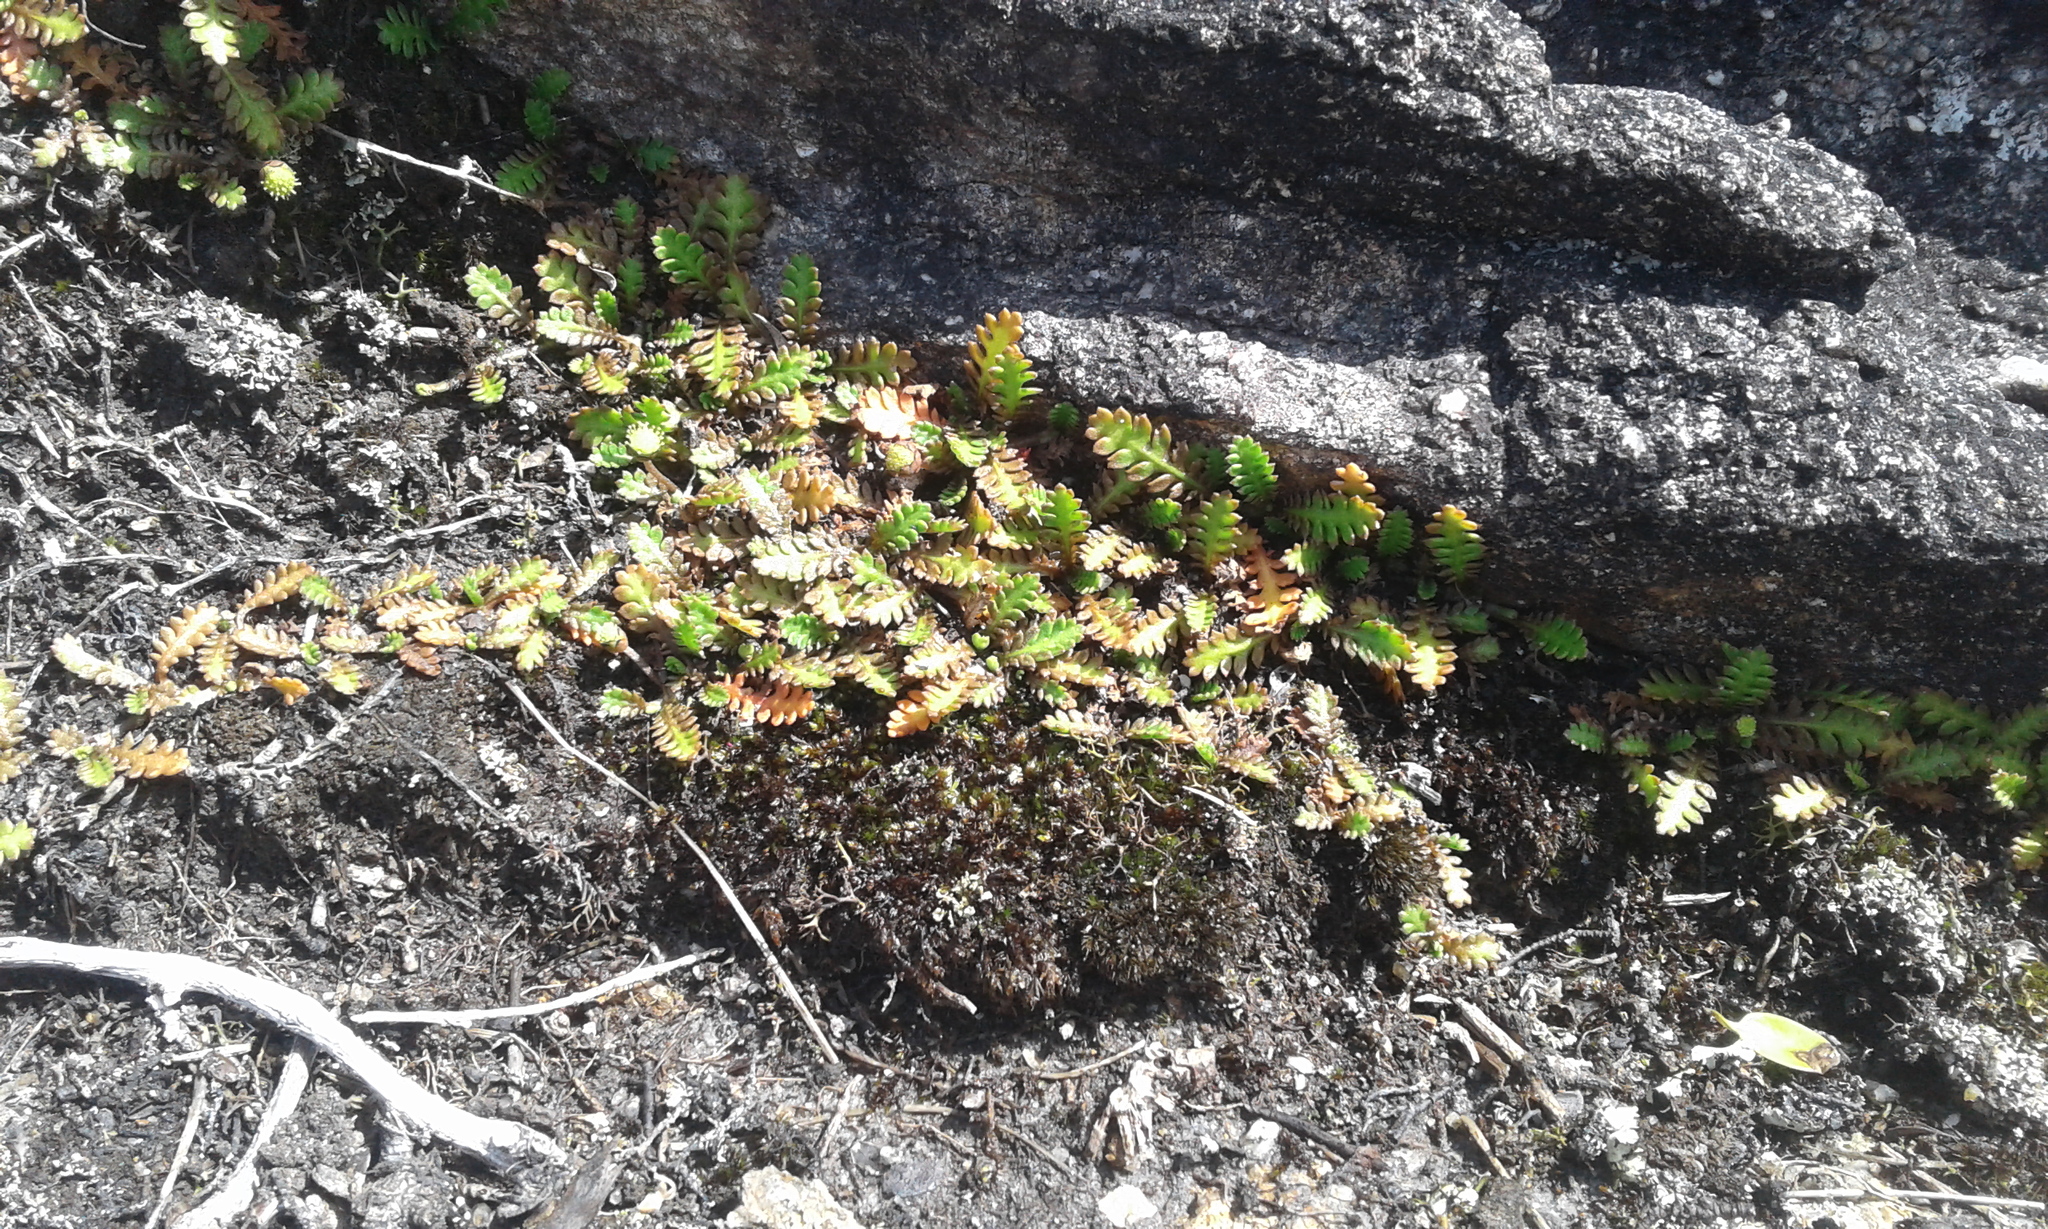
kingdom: Plantae
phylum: Tracheophyta
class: Magnoliopsida
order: Asterales
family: Asteraceae
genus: Leptinella
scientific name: Leptinella
